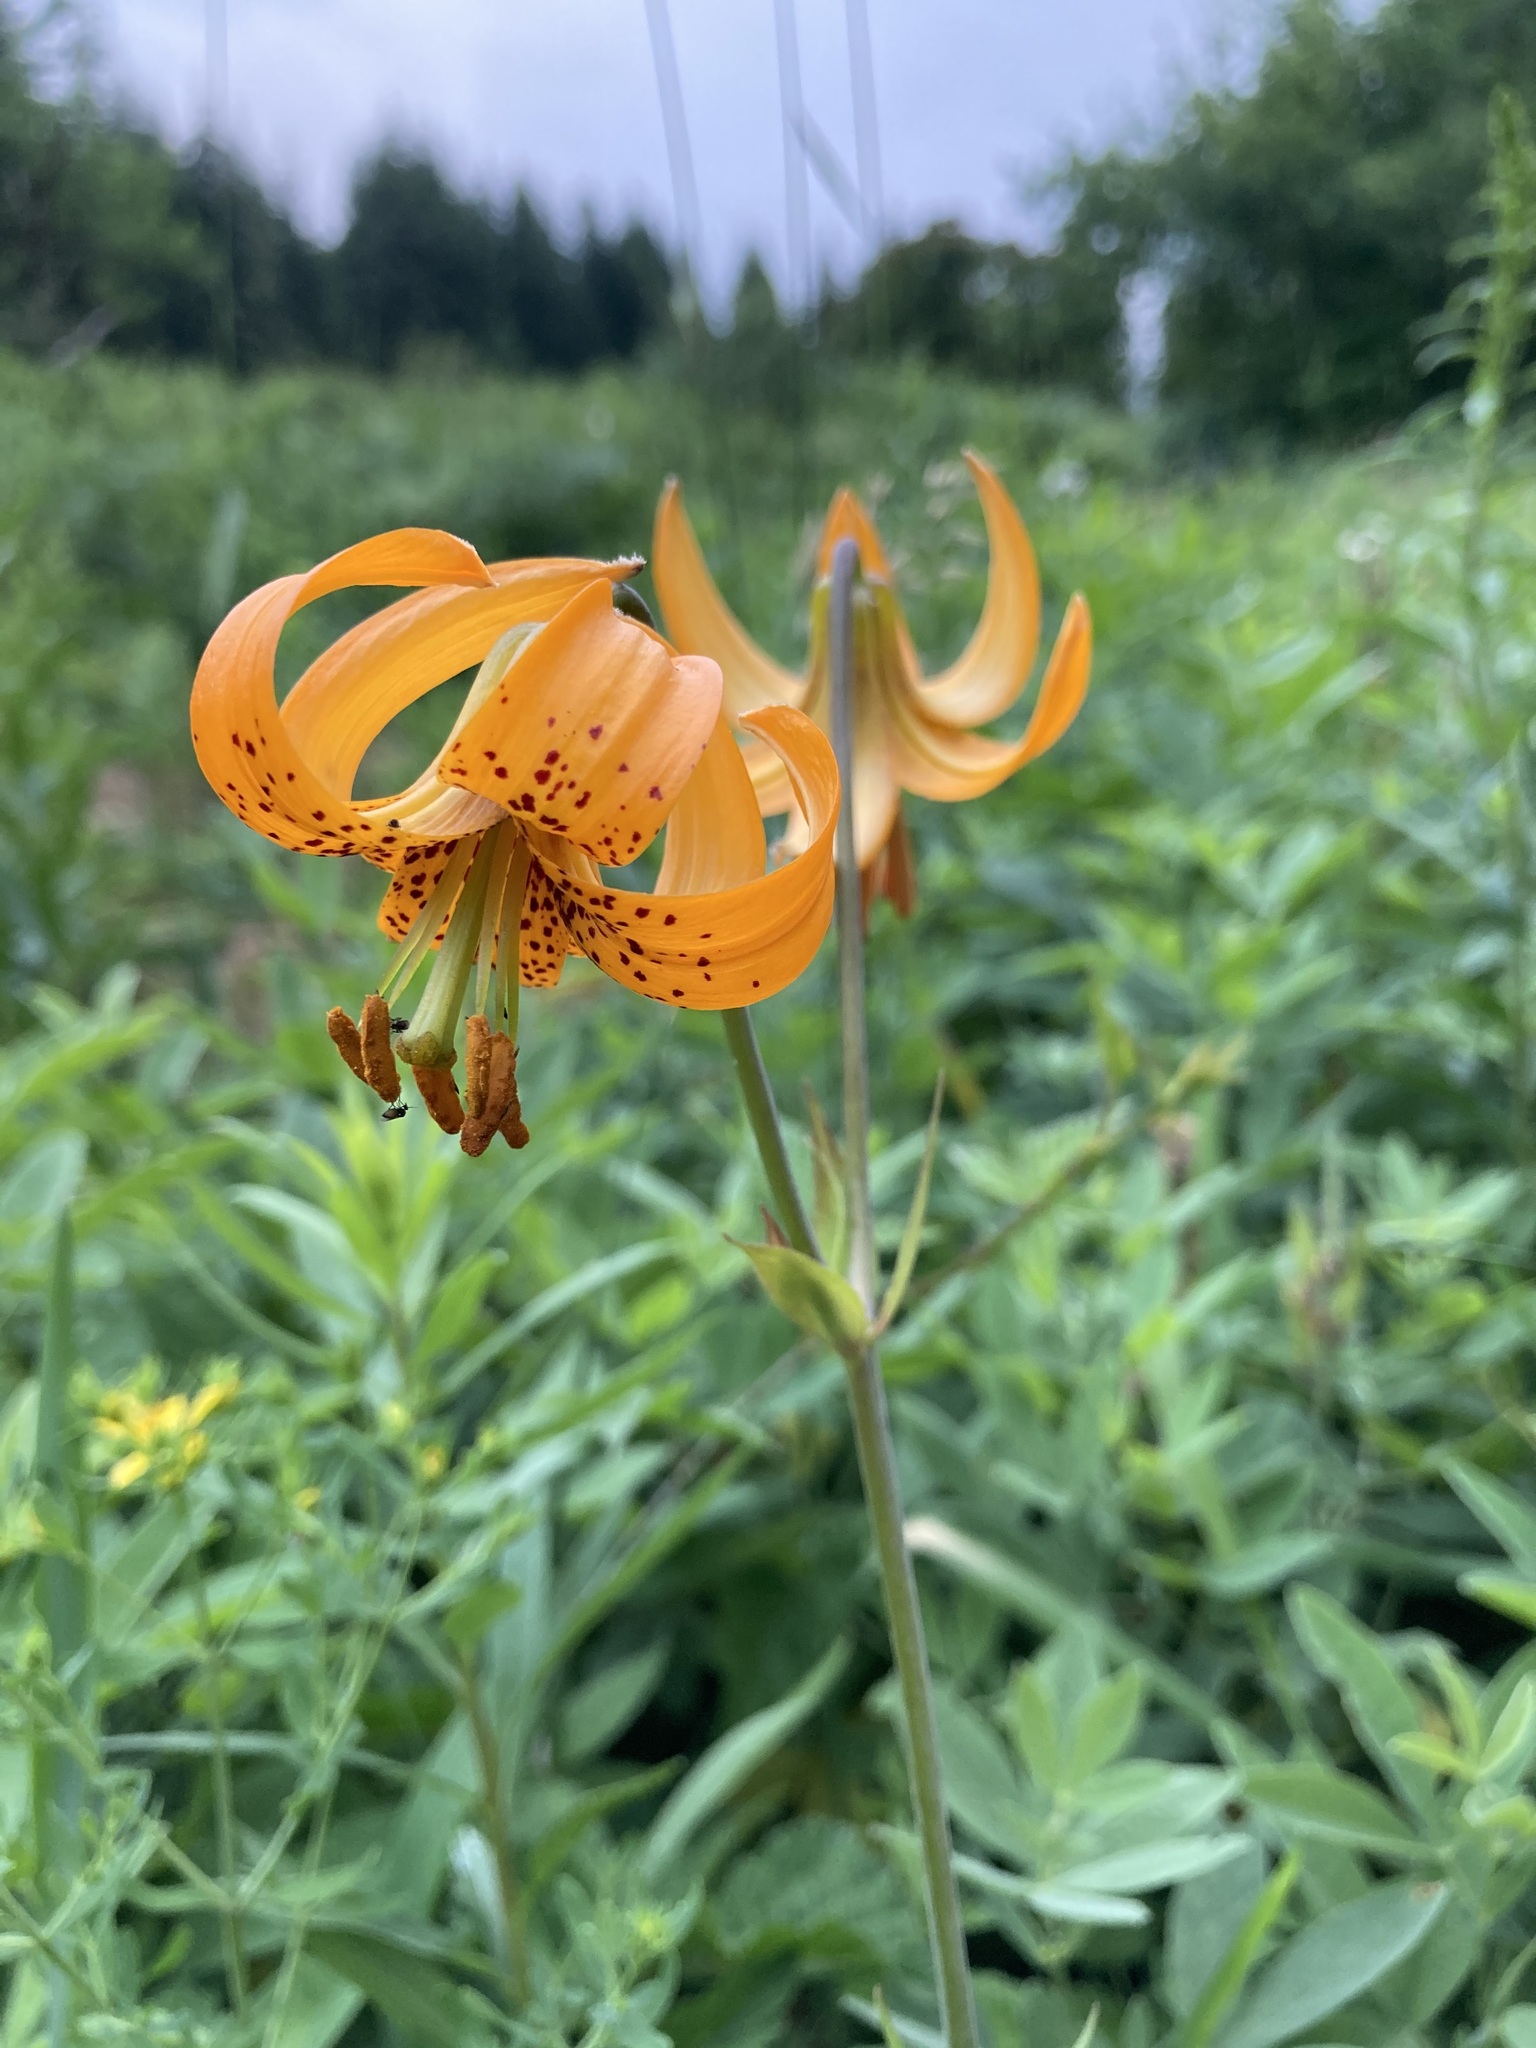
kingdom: Plantae
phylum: Tracheophyta
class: Liliopsida
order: Liliales
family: Liliaceae
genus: Lilium
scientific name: Lilium columbianum
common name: Columbia lily
